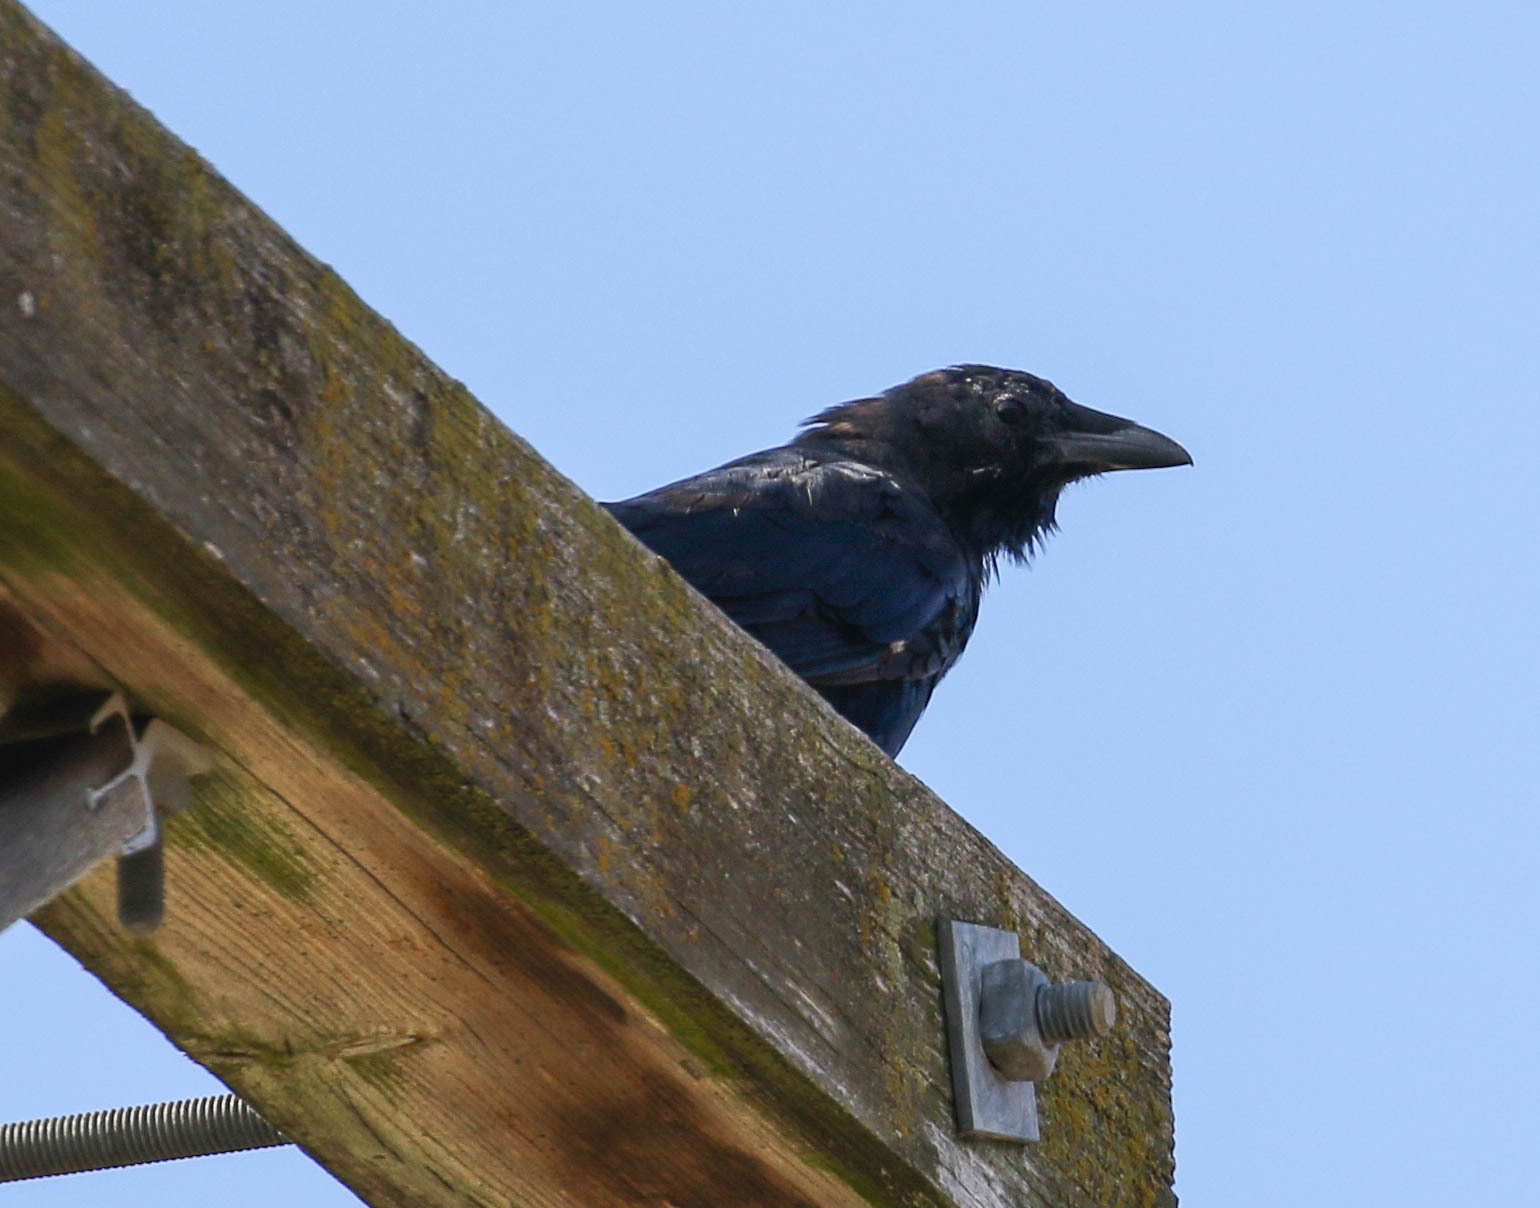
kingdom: Animalia
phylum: Chordata
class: Aves
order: Passeriformes
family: Corvidae
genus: Corvus
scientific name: Corvus corax
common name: Common raven
